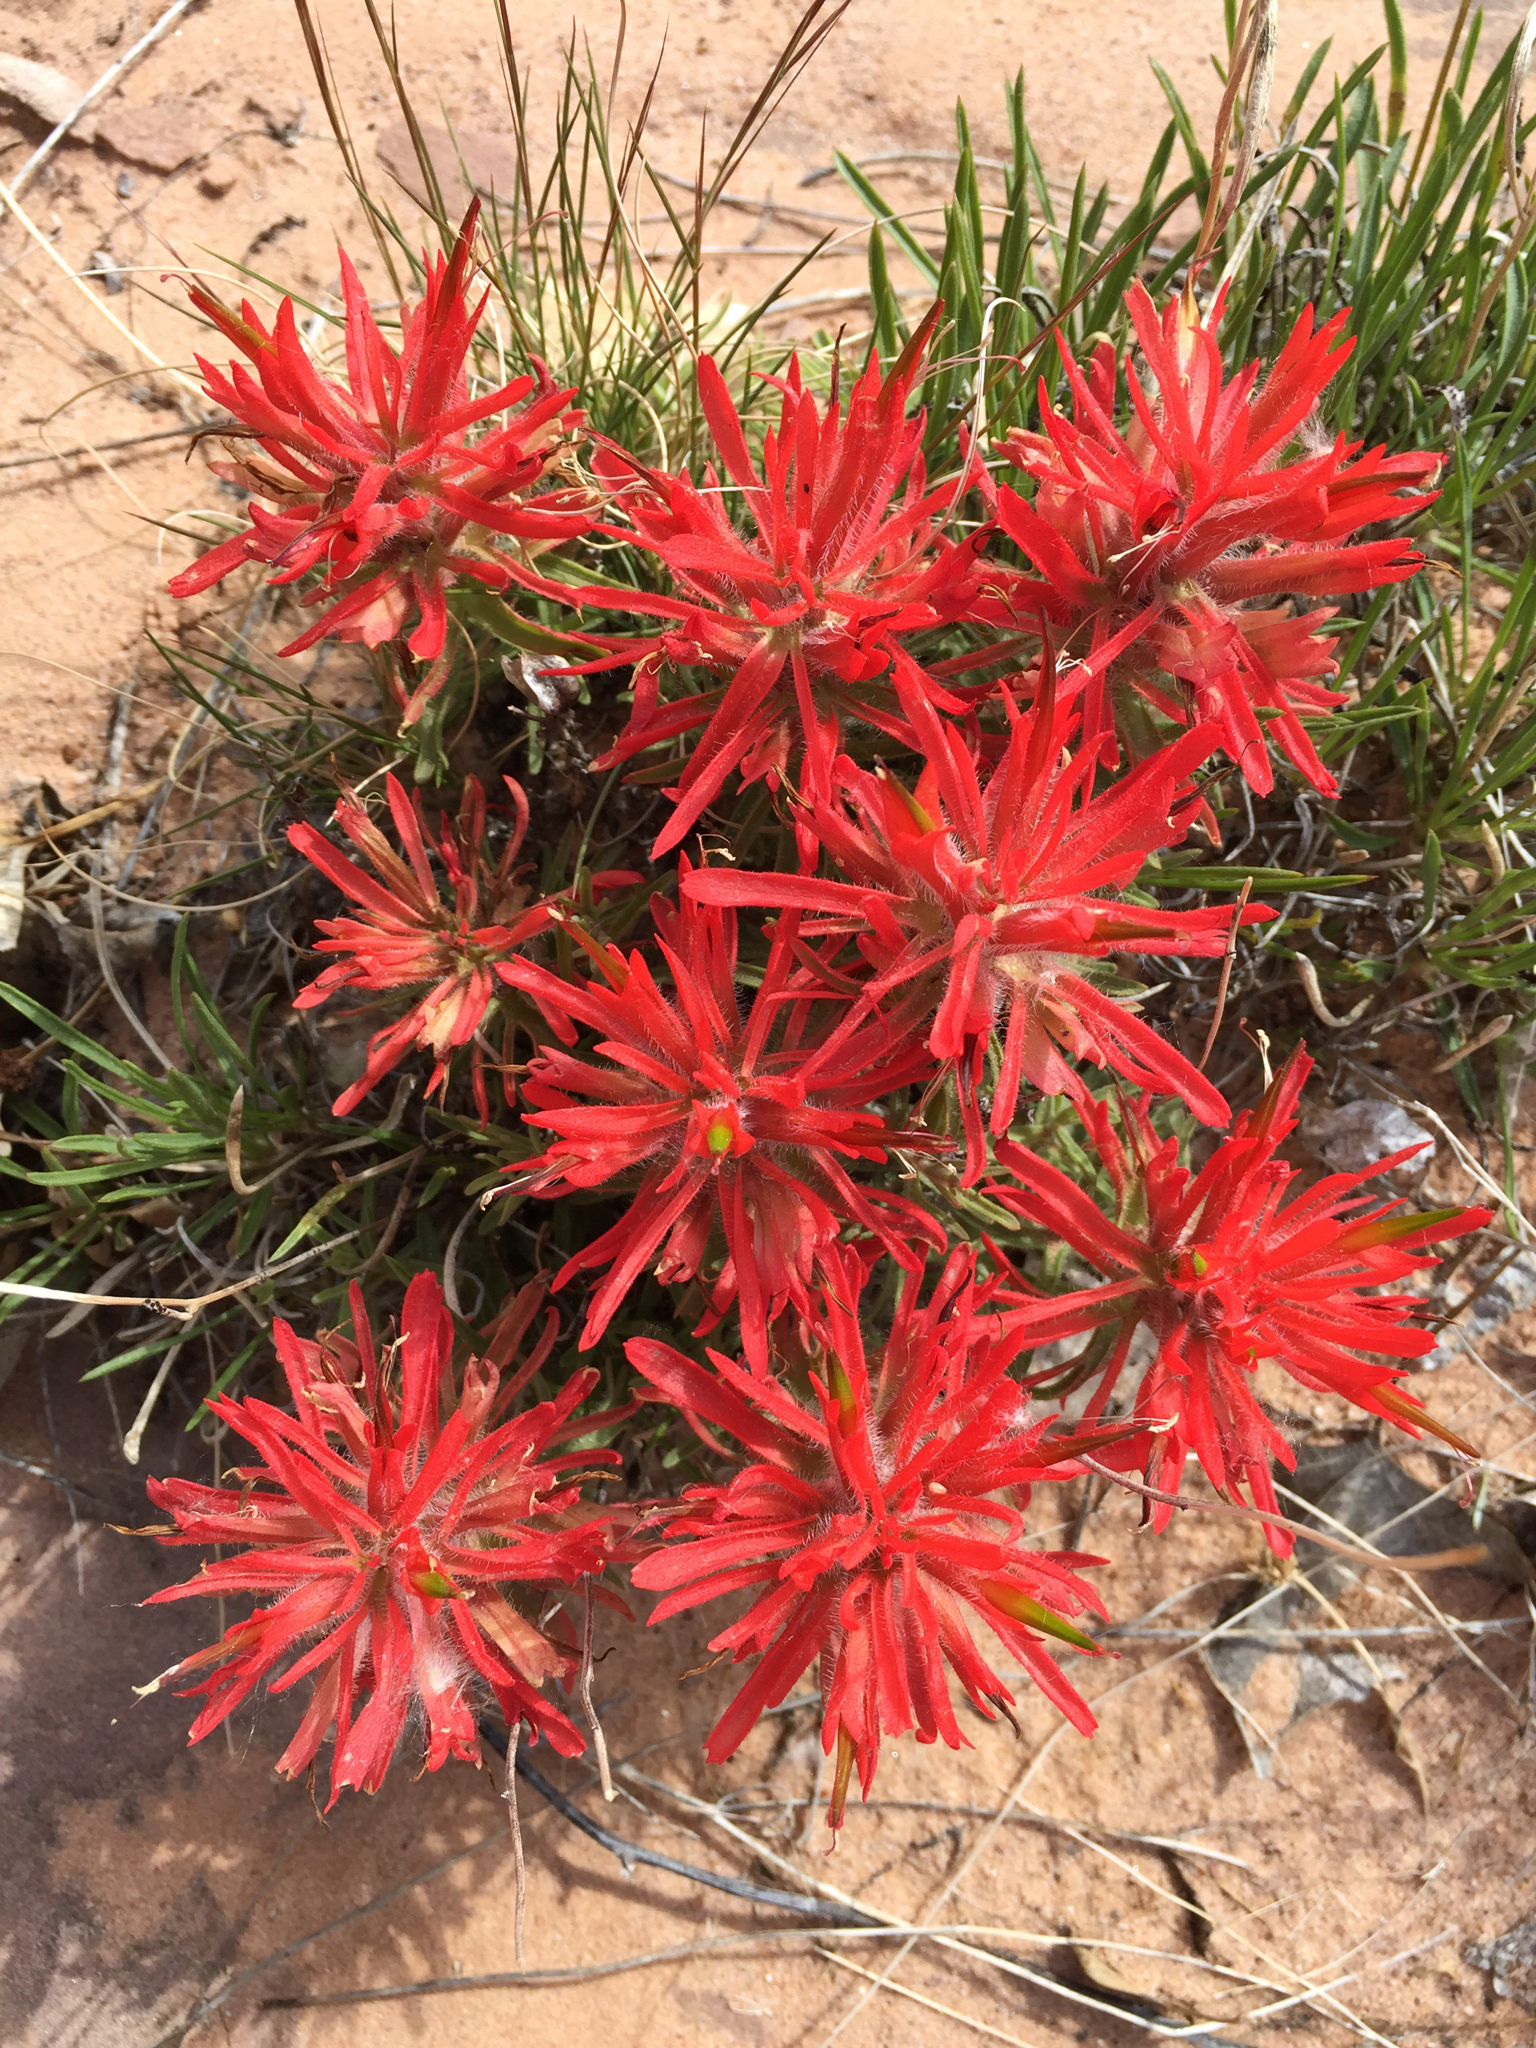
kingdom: Plantae
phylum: Tracheophyta
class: Magnoliopsida
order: Lamiales
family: Orobanchaceae
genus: Castilleja
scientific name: Castilleja chromosa
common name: Desert paintbrush
